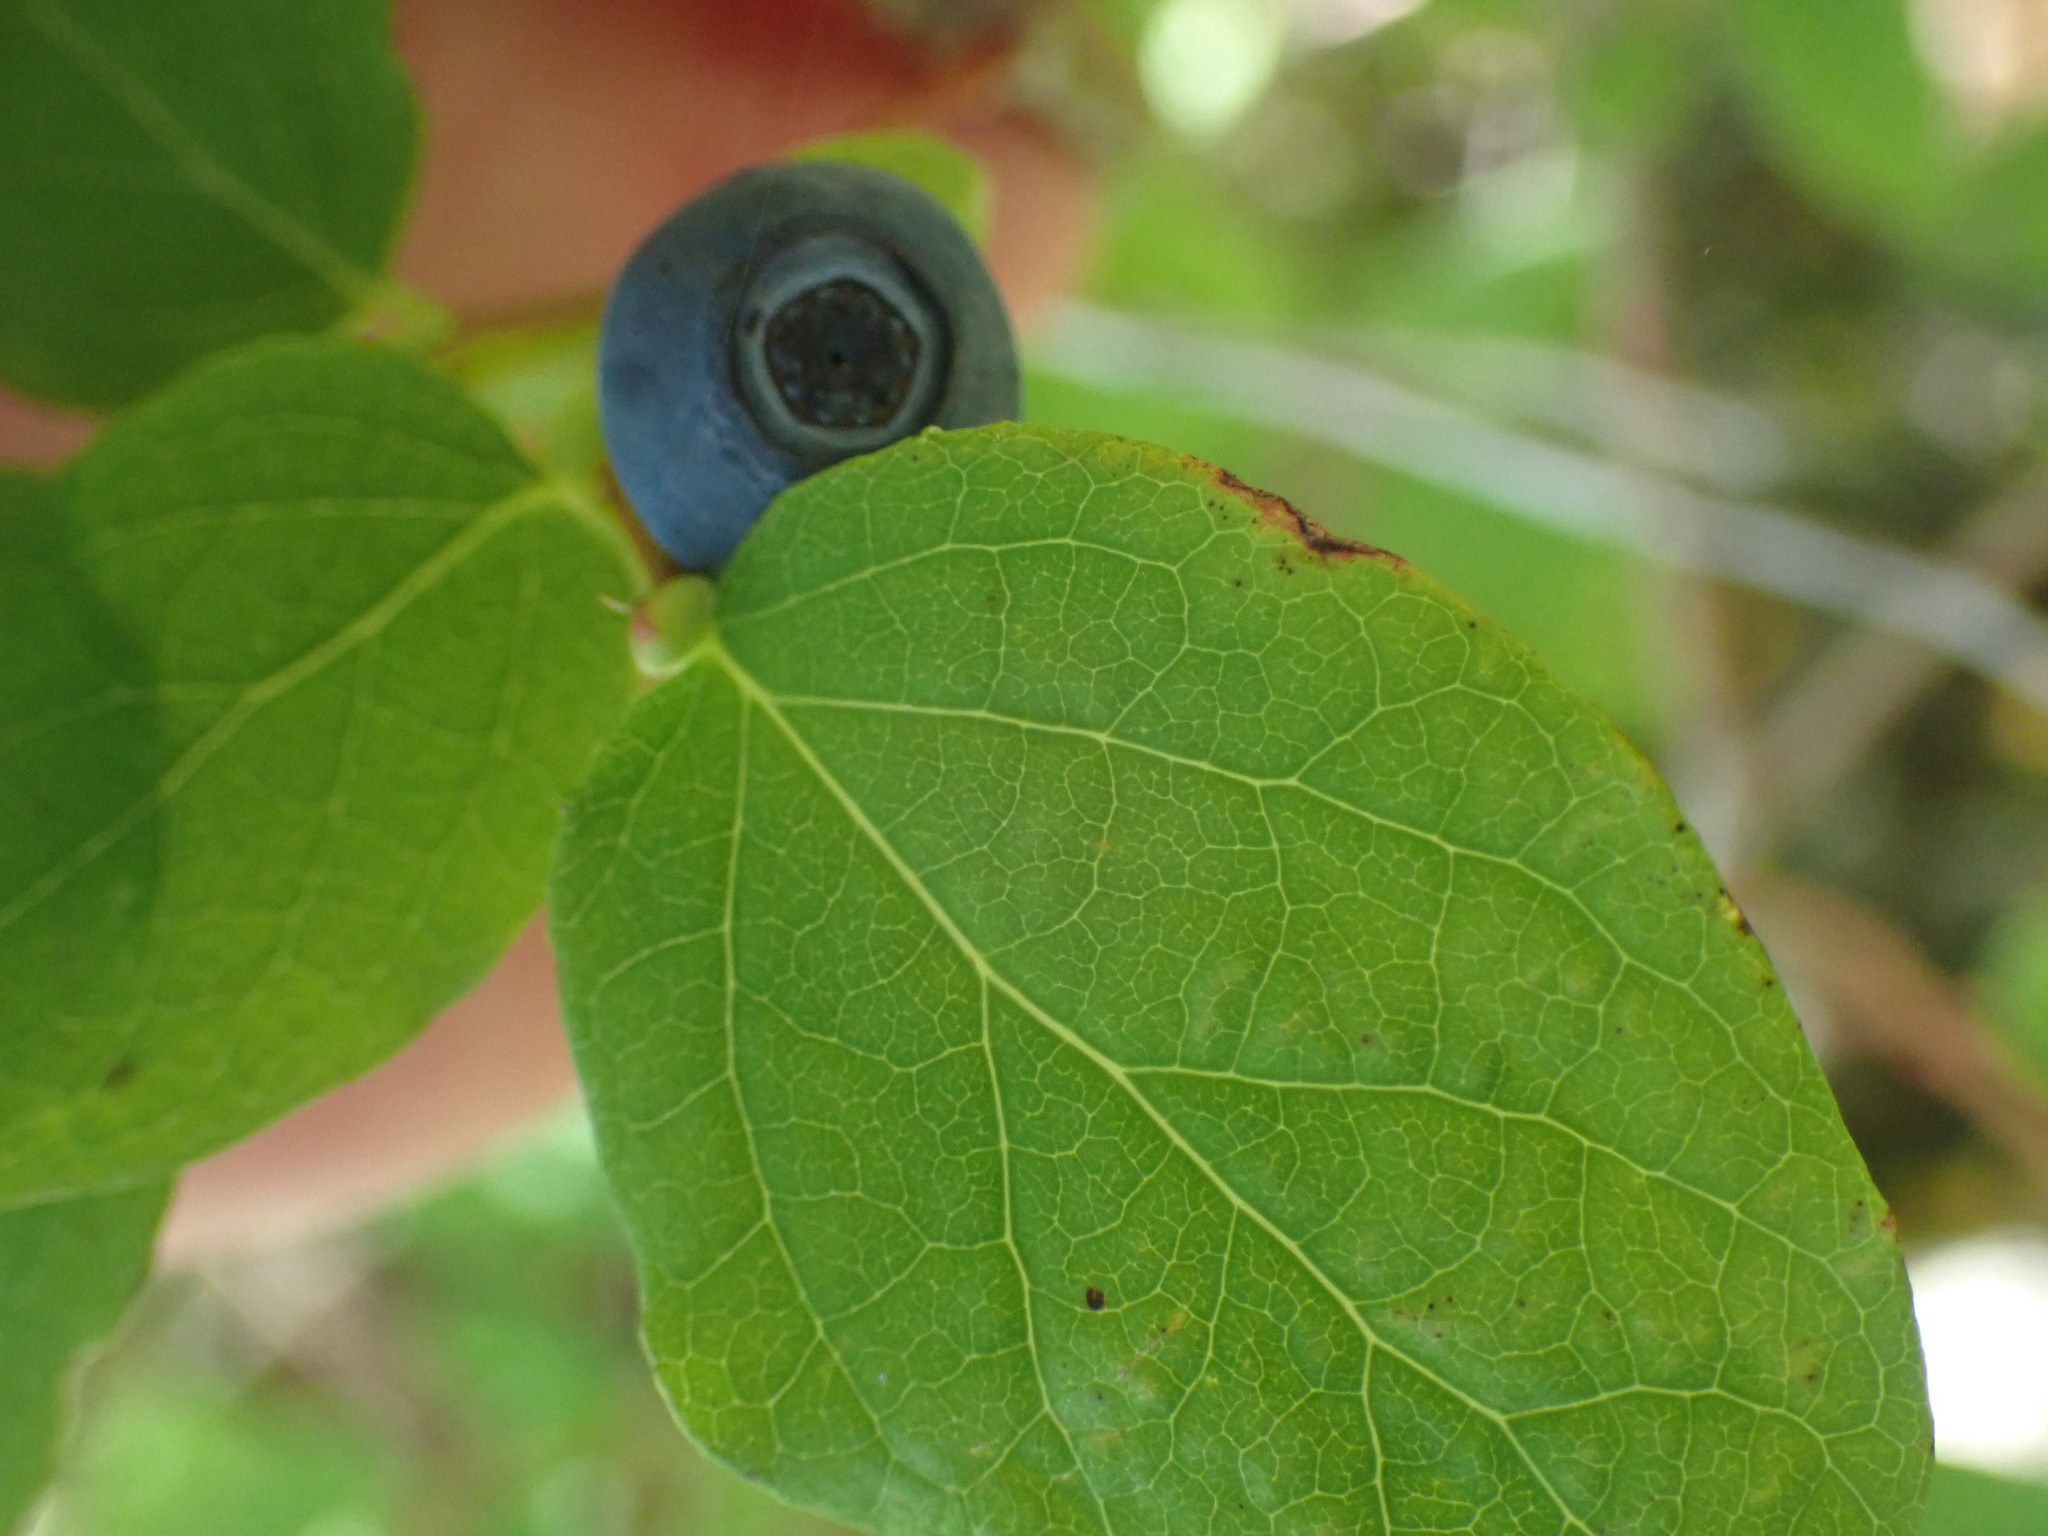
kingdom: Plantae
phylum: Tracheophyta
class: Magnoliopsida
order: Ericales
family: Ericaceae
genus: Vaccinium
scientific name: Vaccinium ovalifolium
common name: Early blueberry
